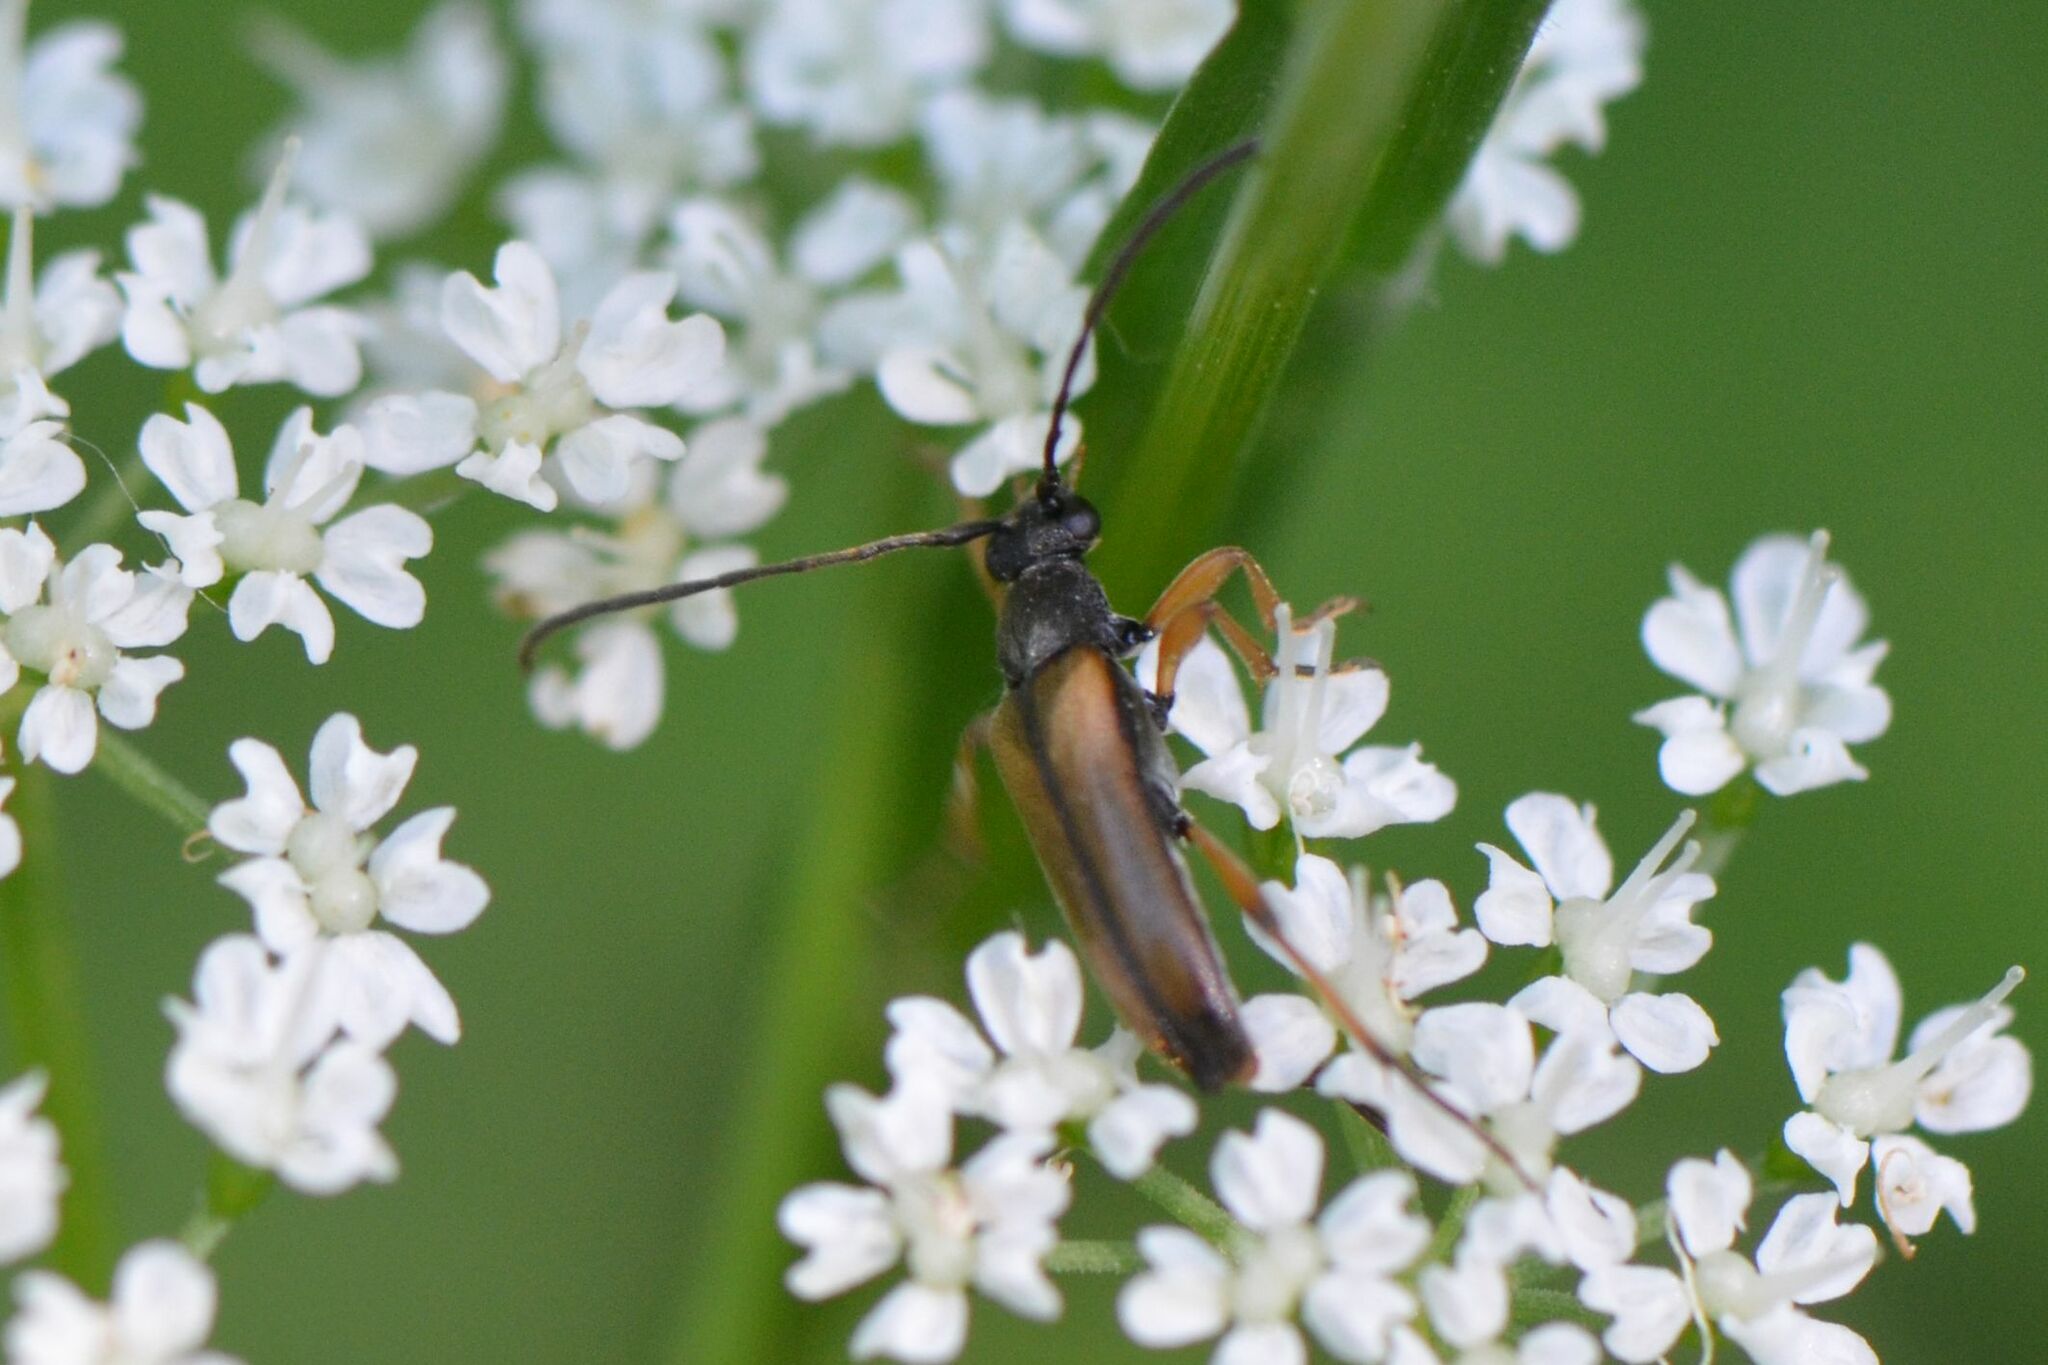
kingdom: Animalia
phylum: Arthropoda
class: Insecta
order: Coleoptera
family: Cerambycidae
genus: Alosterna
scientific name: Alosterna tabacicolor
